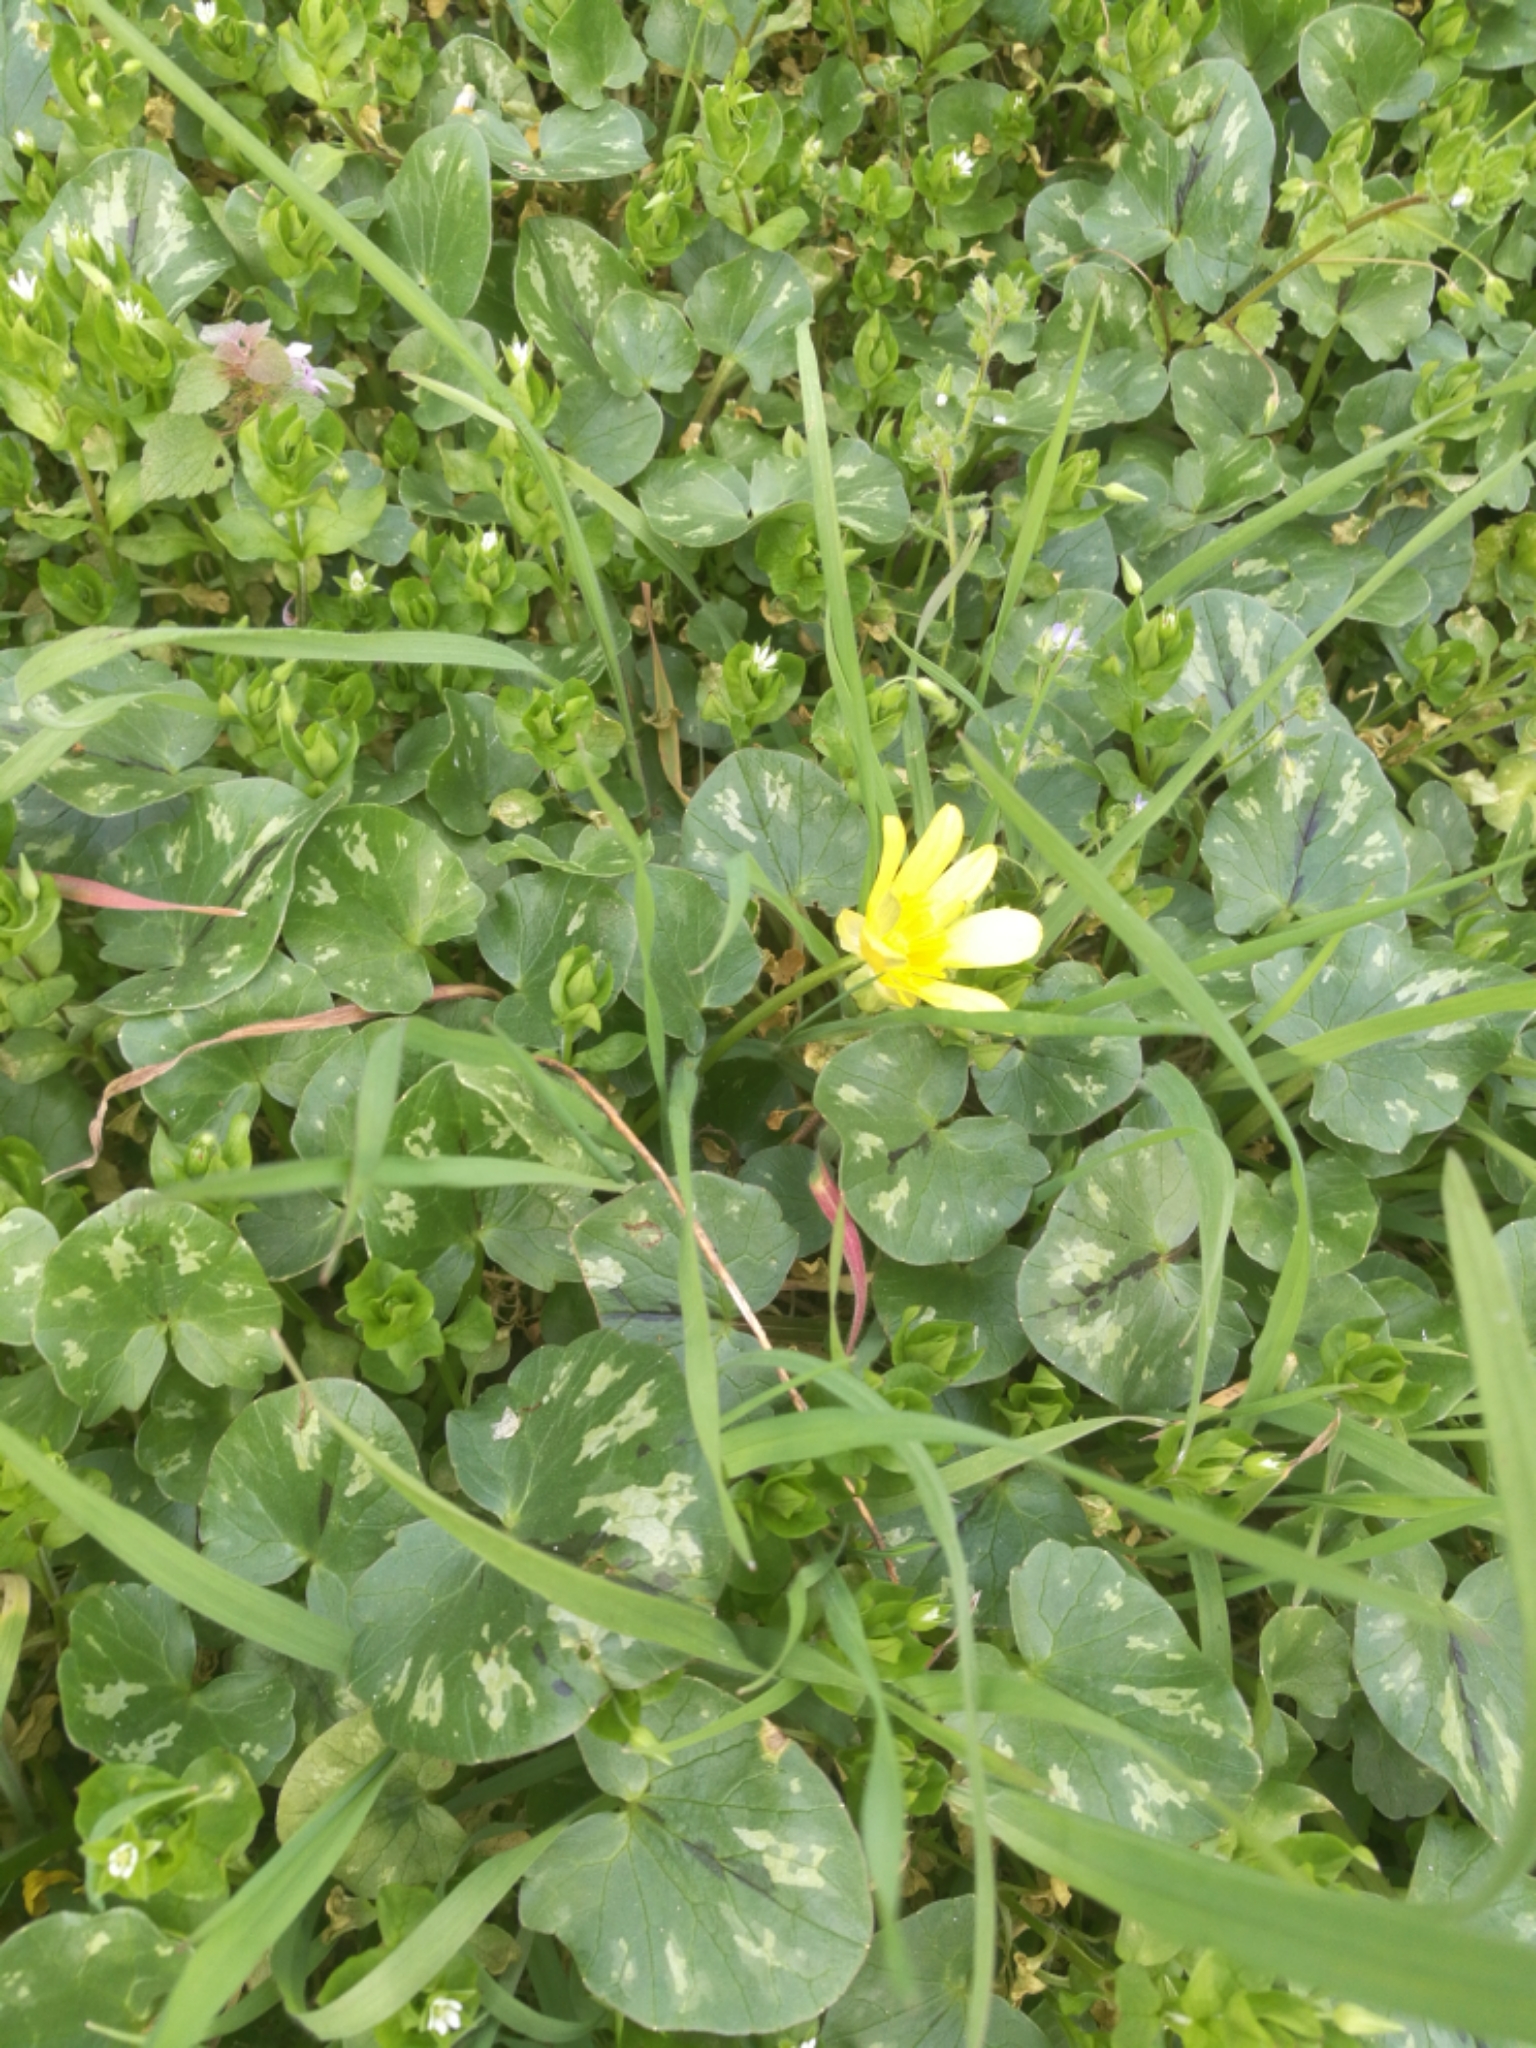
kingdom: Plantae
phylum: Tracheophyta
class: Magnoliopsida
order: Ranunculales
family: Ranunculaceae
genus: Ficaria
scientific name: Ficaria verna
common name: Lesser celandine
